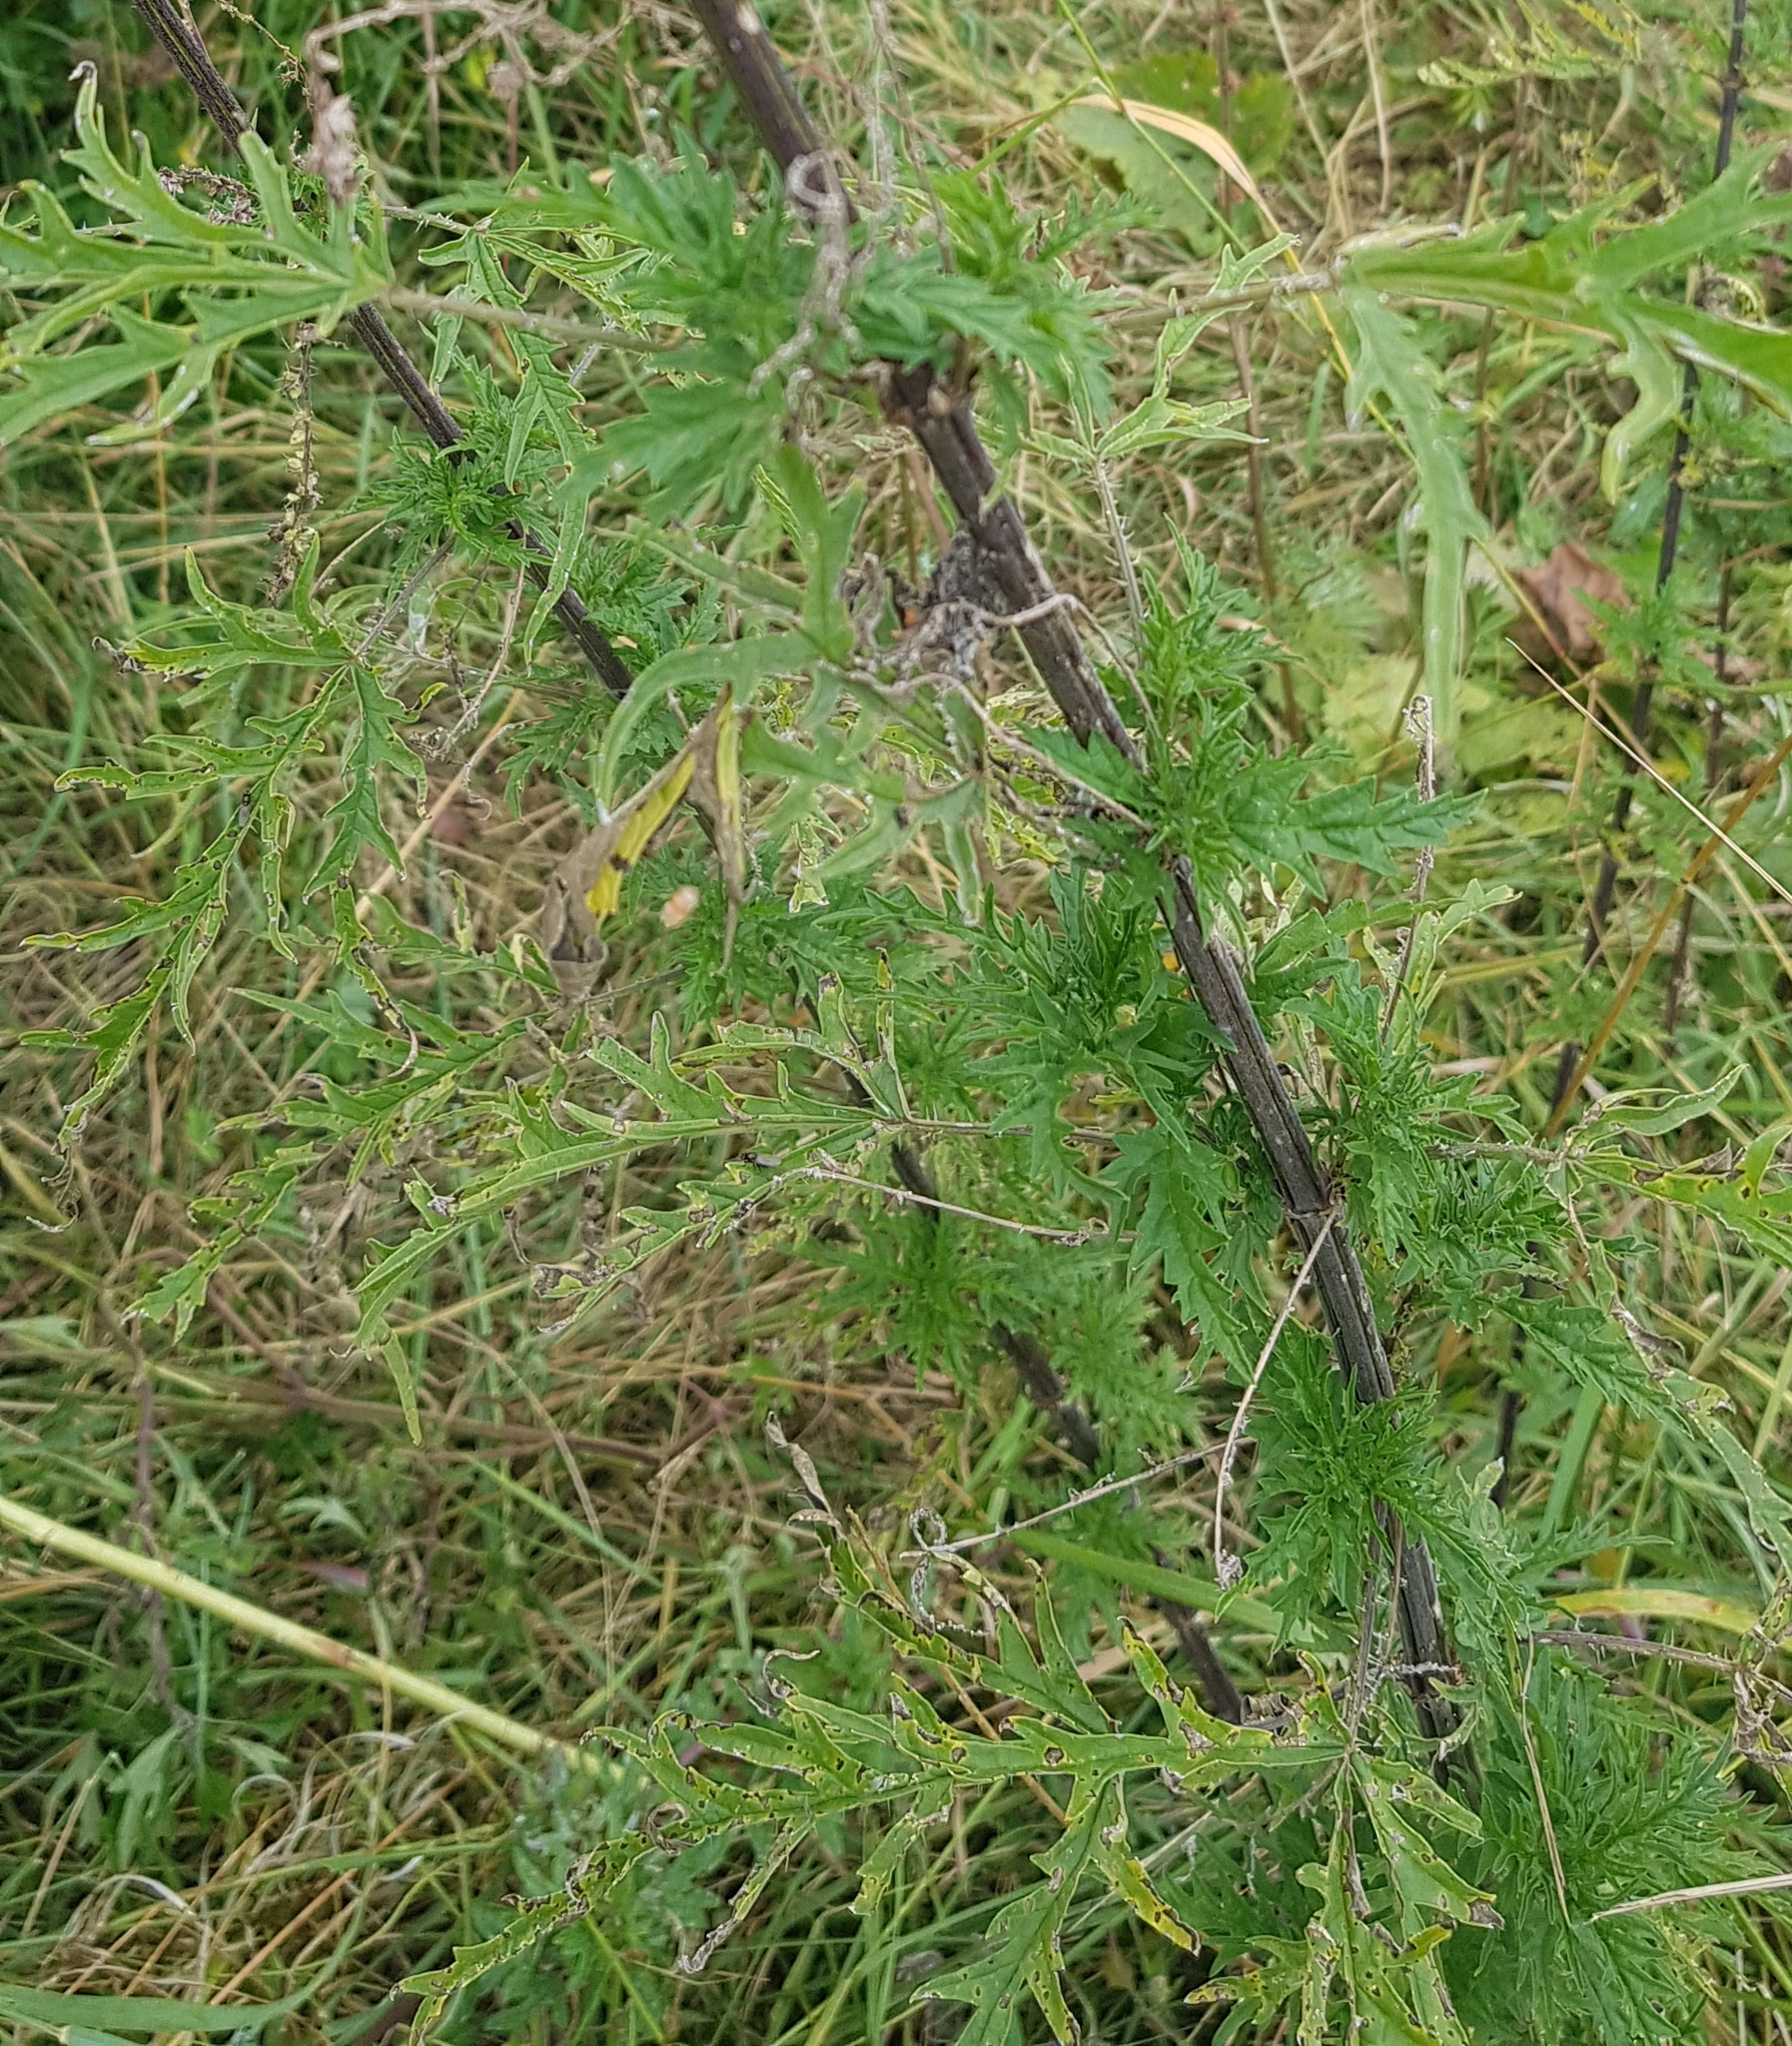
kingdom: Plantae
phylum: Tracheophyta
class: Magnoliopsida
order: Rosales
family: Urticaceae
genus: Urtica
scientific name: Urtica cannabina
